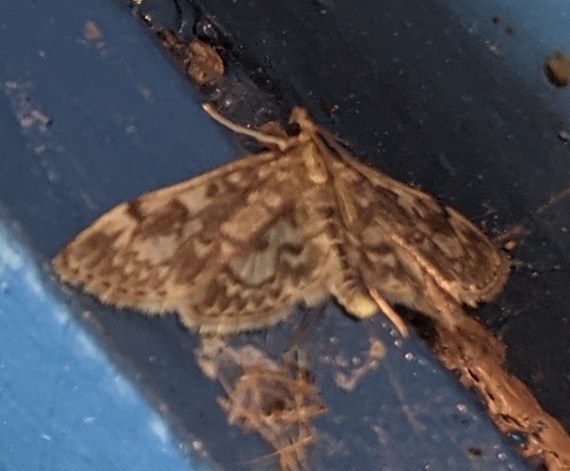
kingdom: Animalia
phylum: Arthropoda
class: Insecta
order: Lepidoptera
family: Crambidae
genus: Anania
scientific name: Anania
